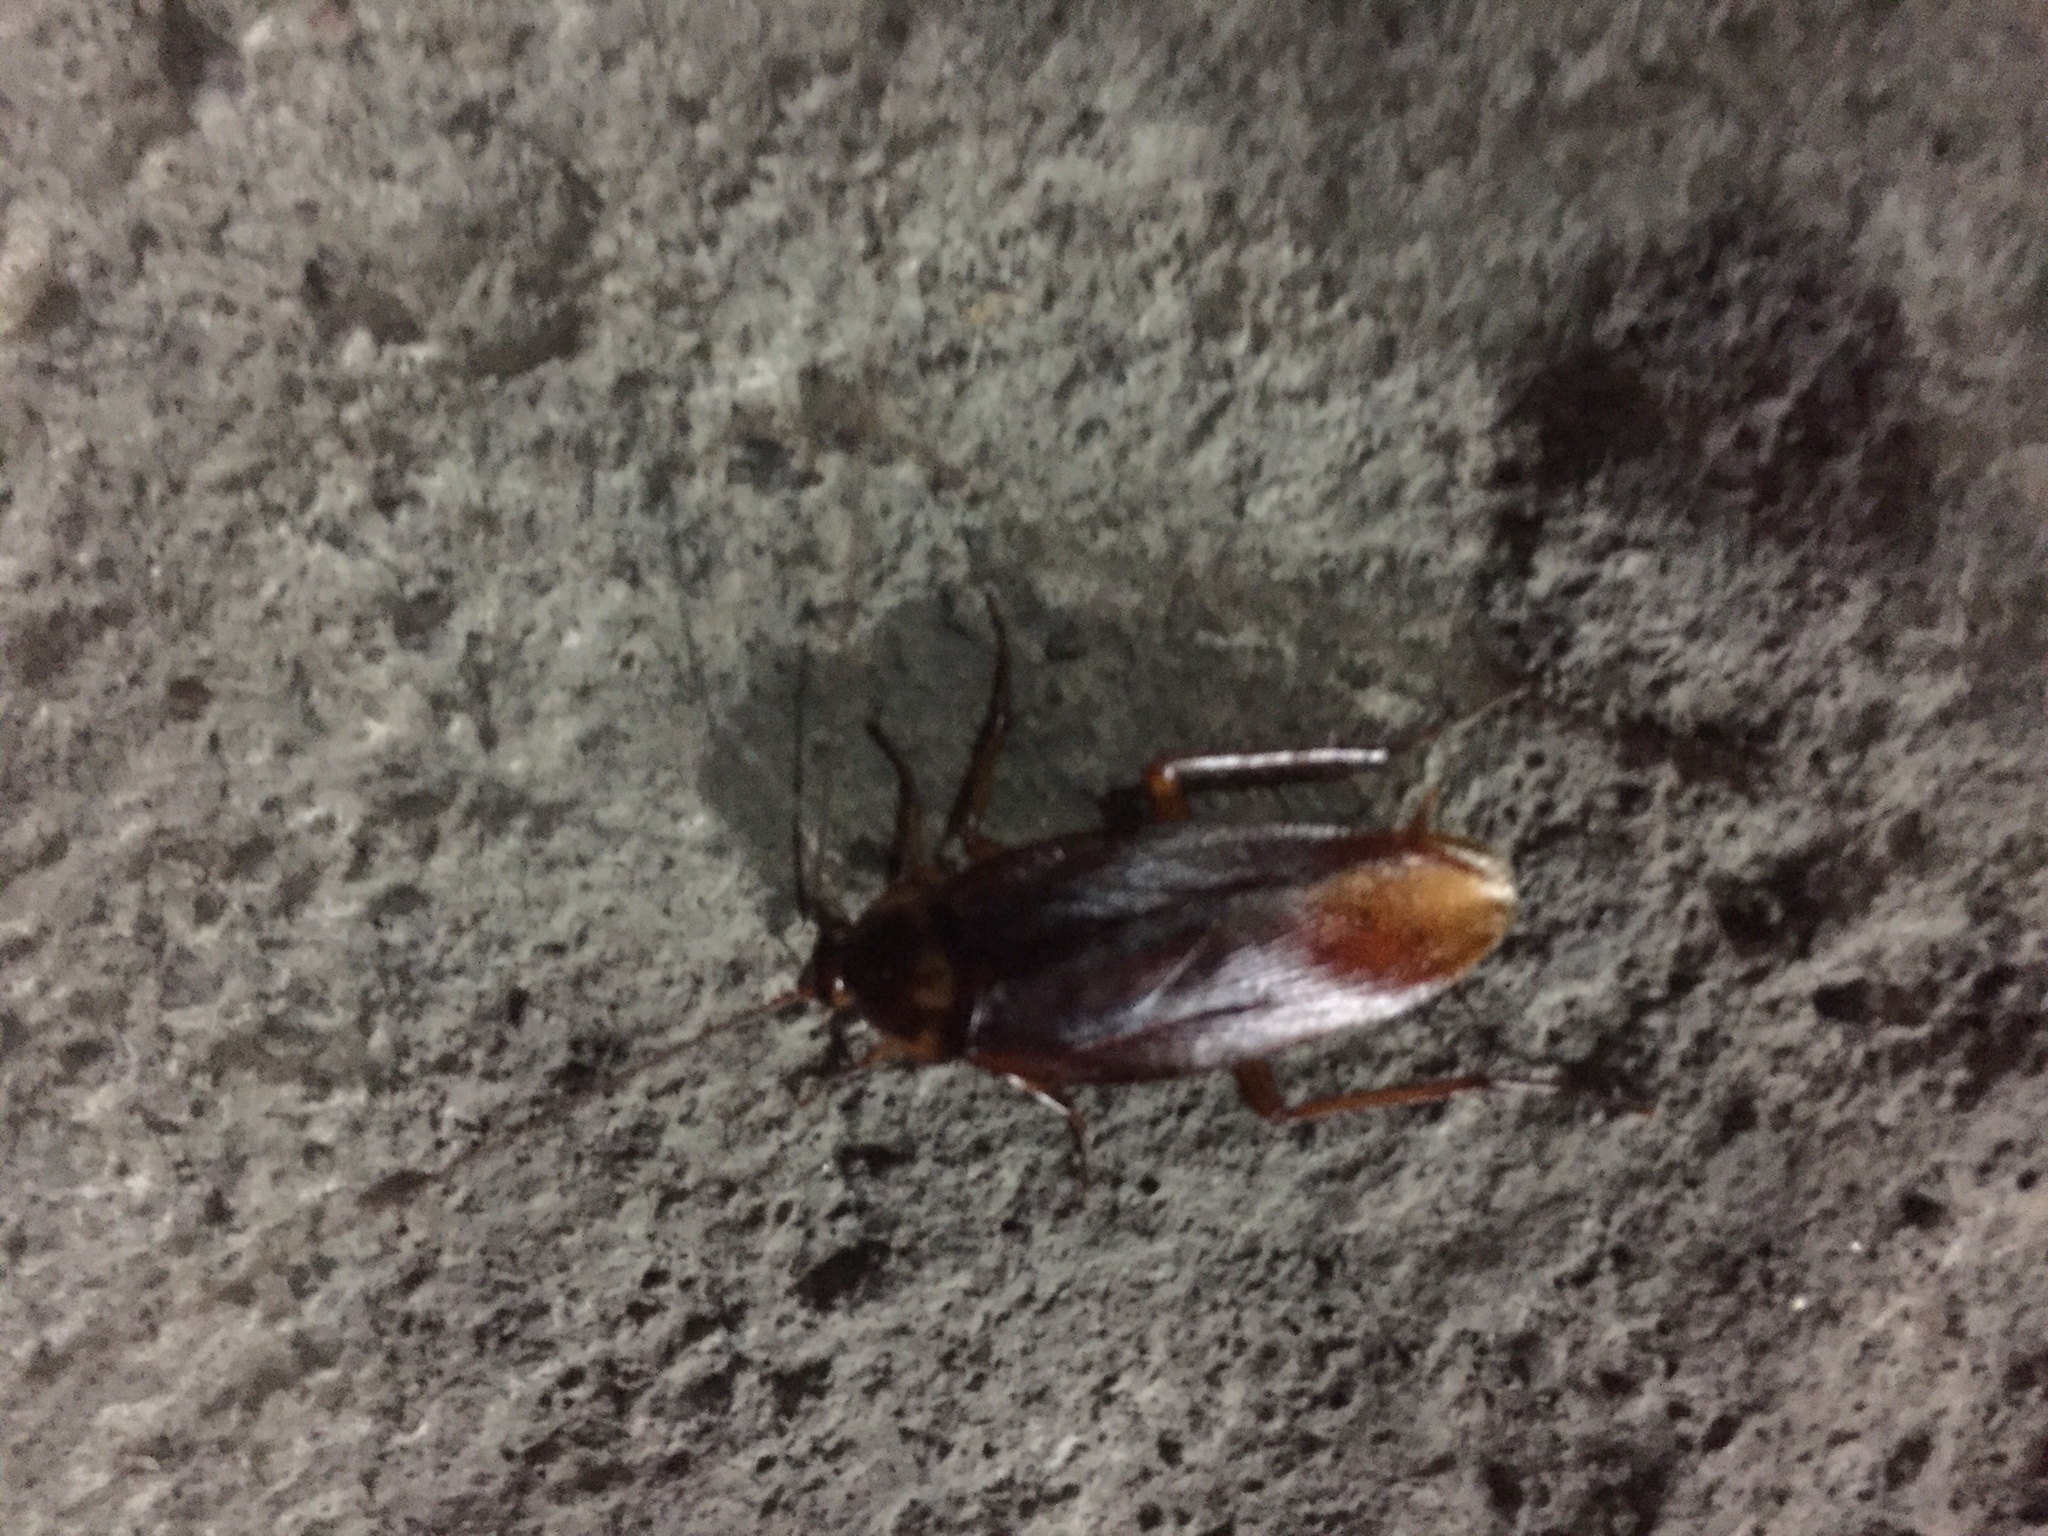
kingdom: Animalia
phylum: Arthropoda
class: Insecta
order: Blattodea
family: Blattidae
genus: Periplaneta
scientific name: Periplaneta americana
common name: American cockroach
